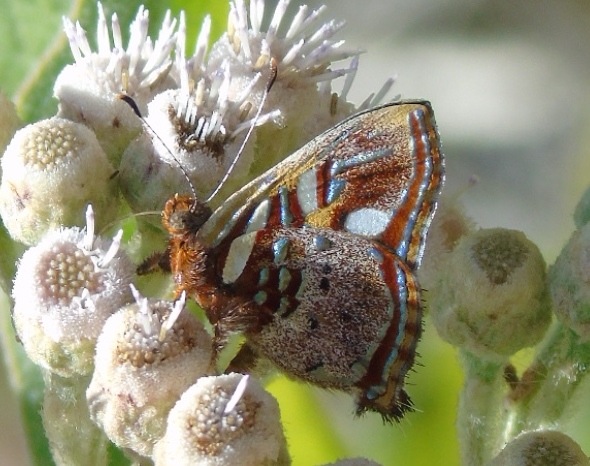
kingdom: Animalia
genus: Anteros
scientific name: Anteros carausius
